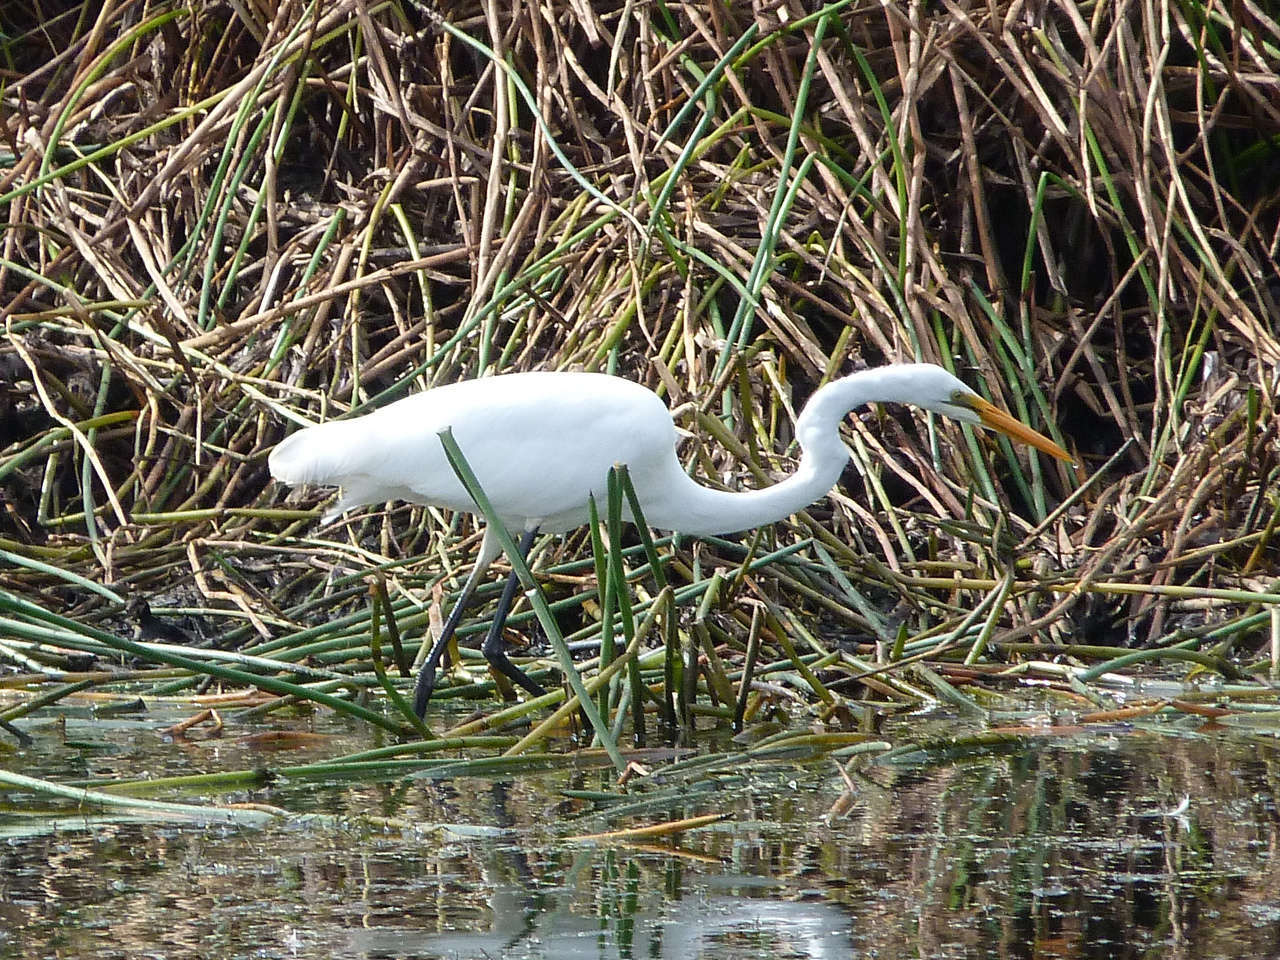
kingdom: Animalia
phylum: Chordata
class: Aves
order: Pelecaniformes
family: Ardeidae
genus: Ardea
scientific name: Ardea modesta
